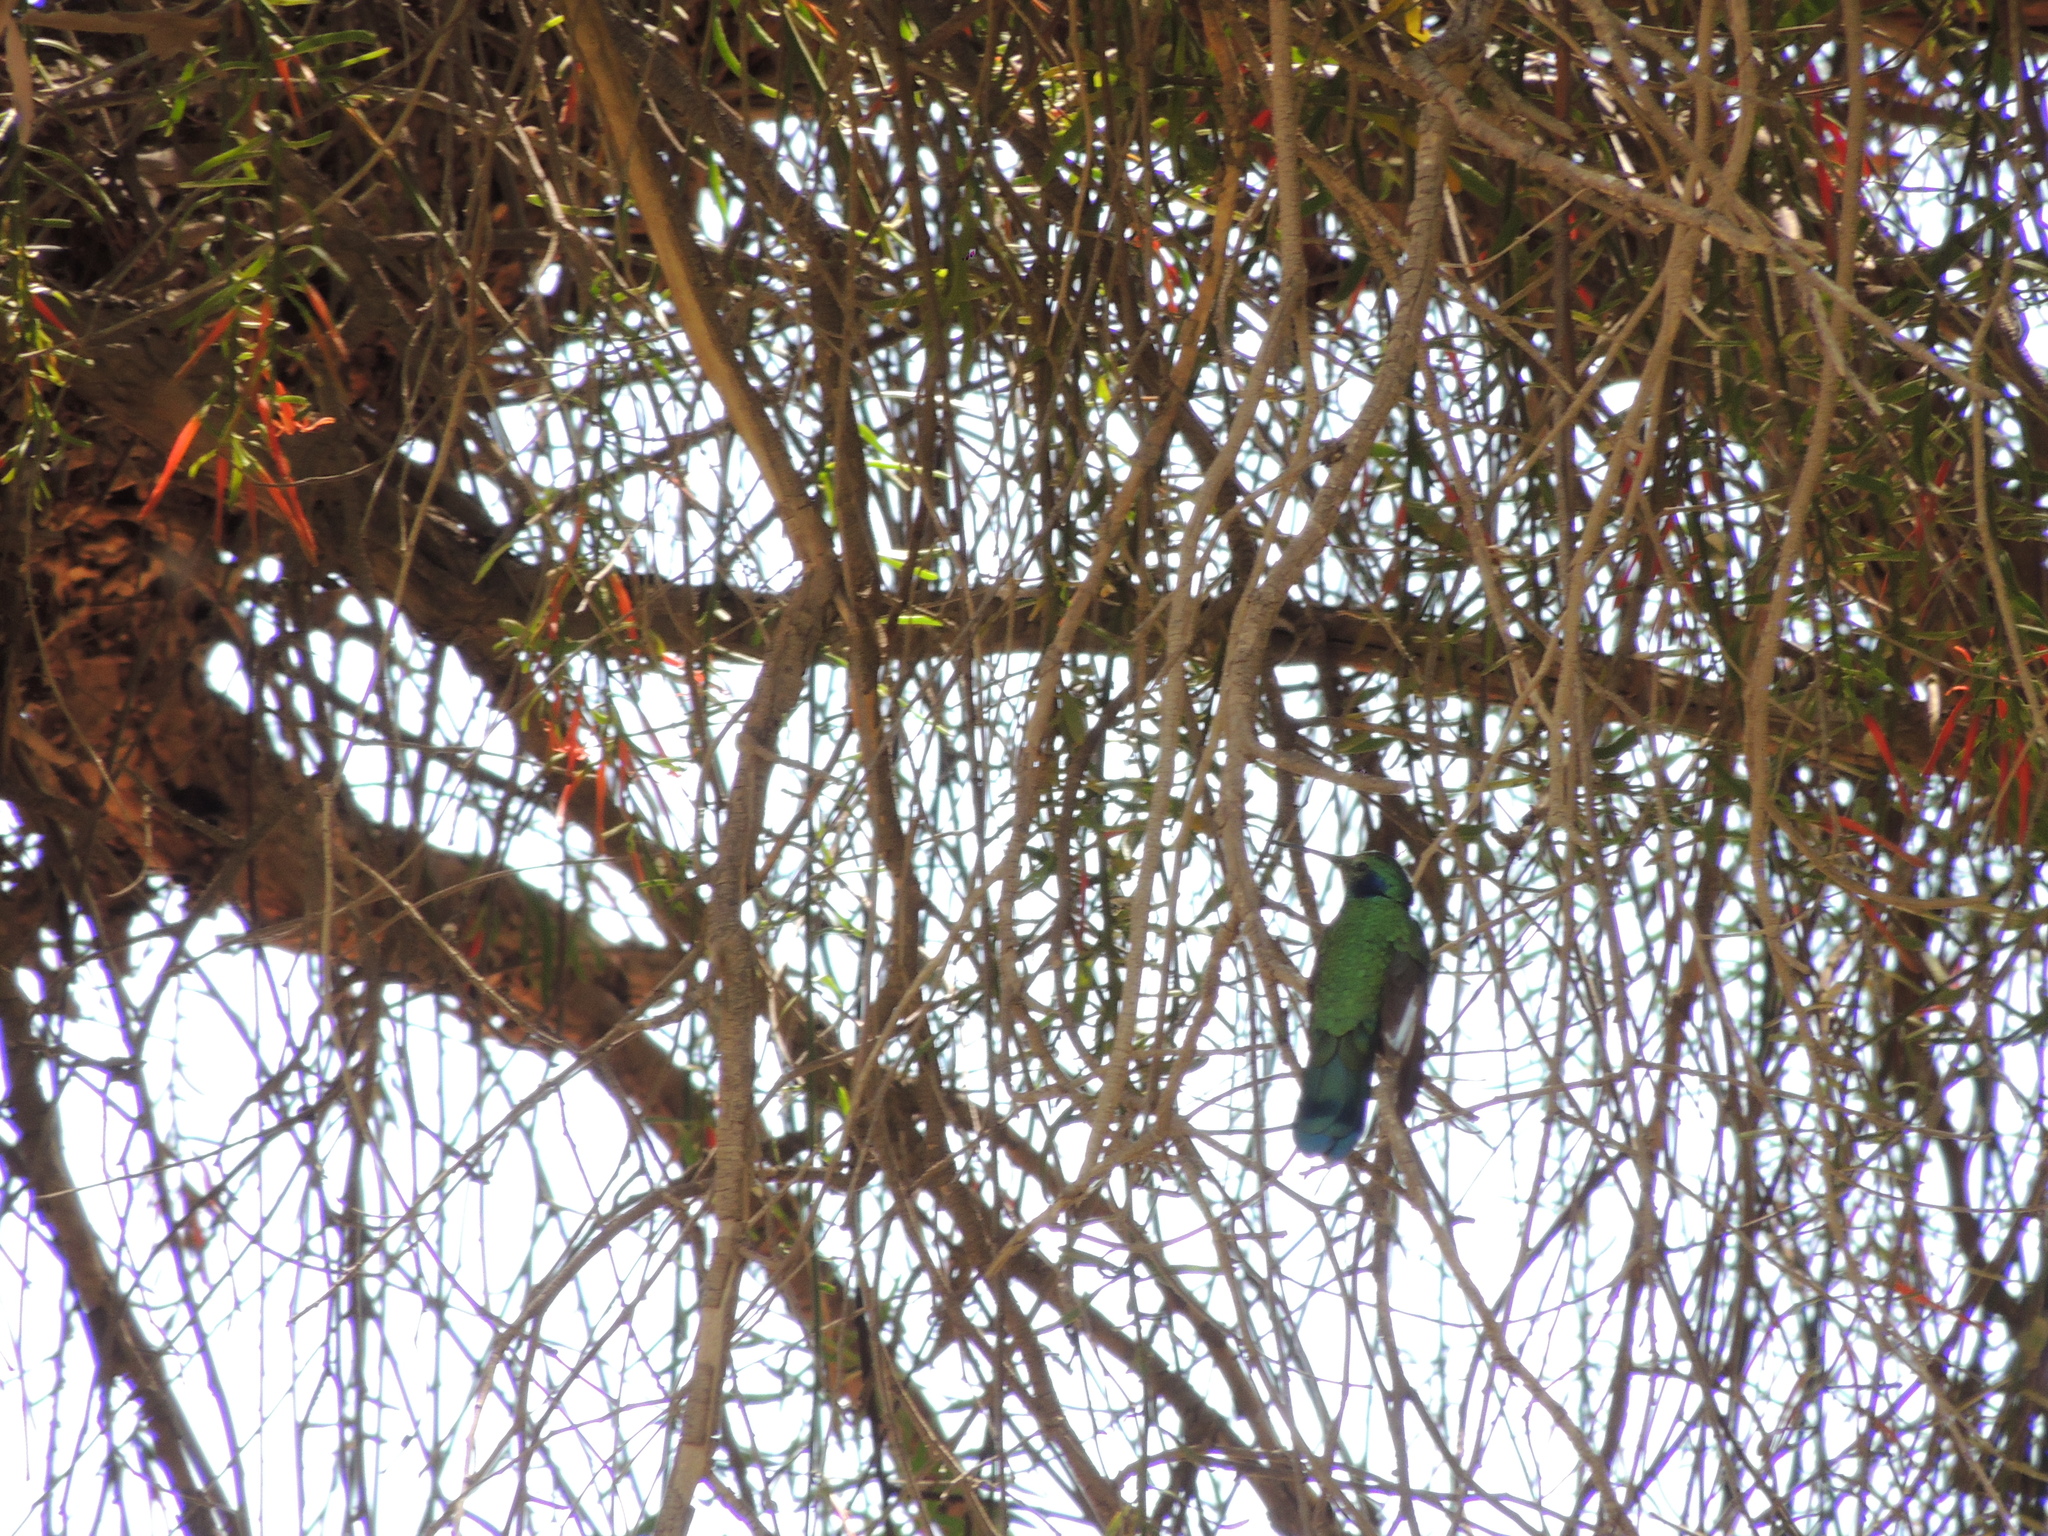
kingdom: Animalia
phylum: Chordata
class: Aves
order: Apodiformes
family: Trochilidae
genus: Colibri
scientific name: Colibri coruscans
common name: Sparkling violetear
